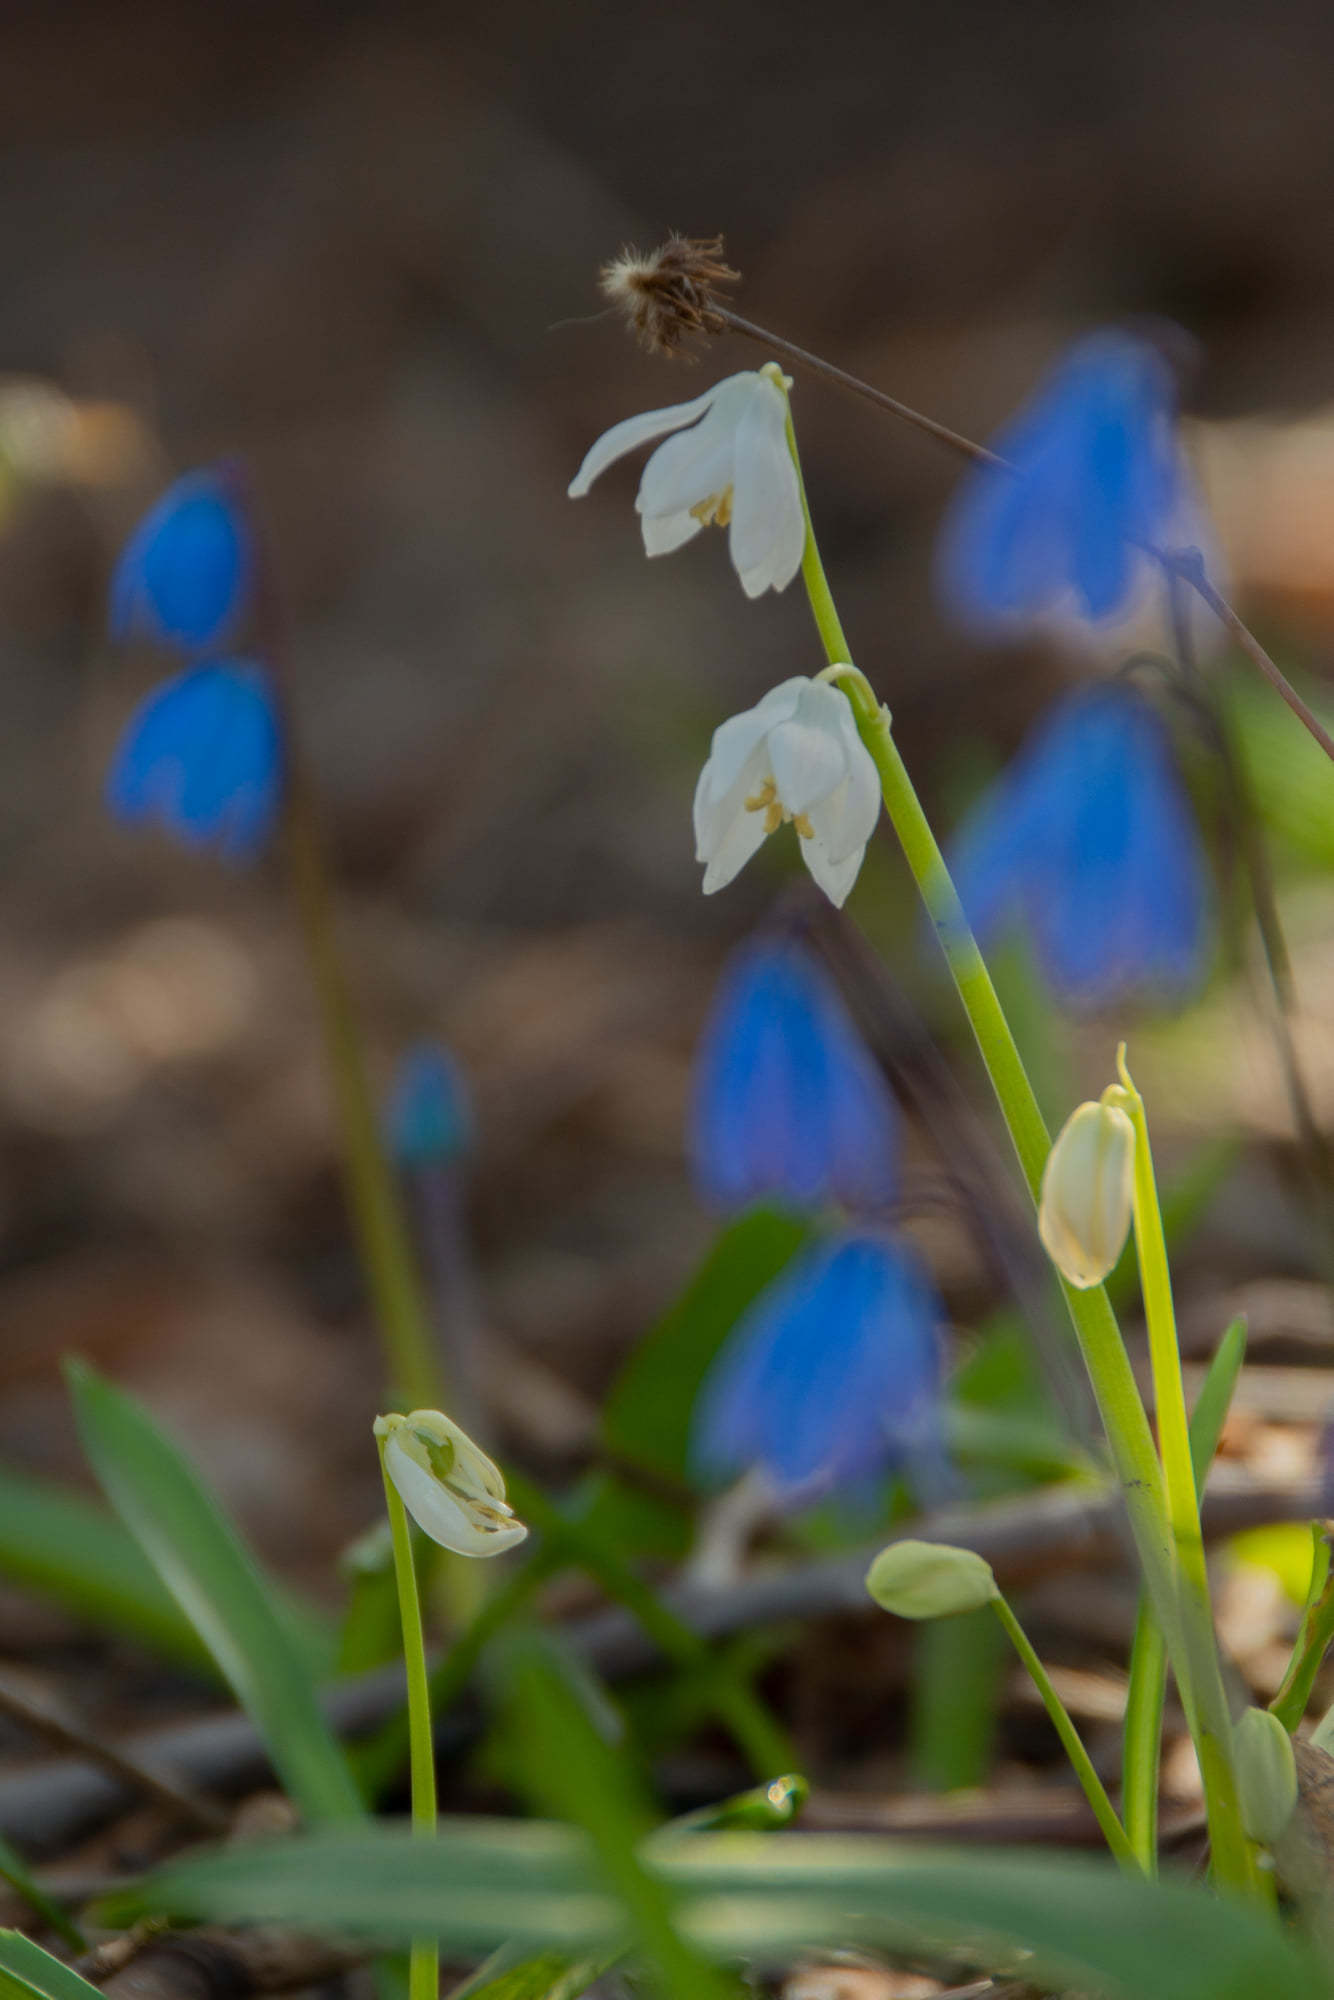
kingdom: Plantae
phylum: Tracheophyta
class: Liliopsida
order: Asparagales
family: Asparagaceae
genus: Scilla
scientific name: Scilla siberica
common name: Siberian squill
